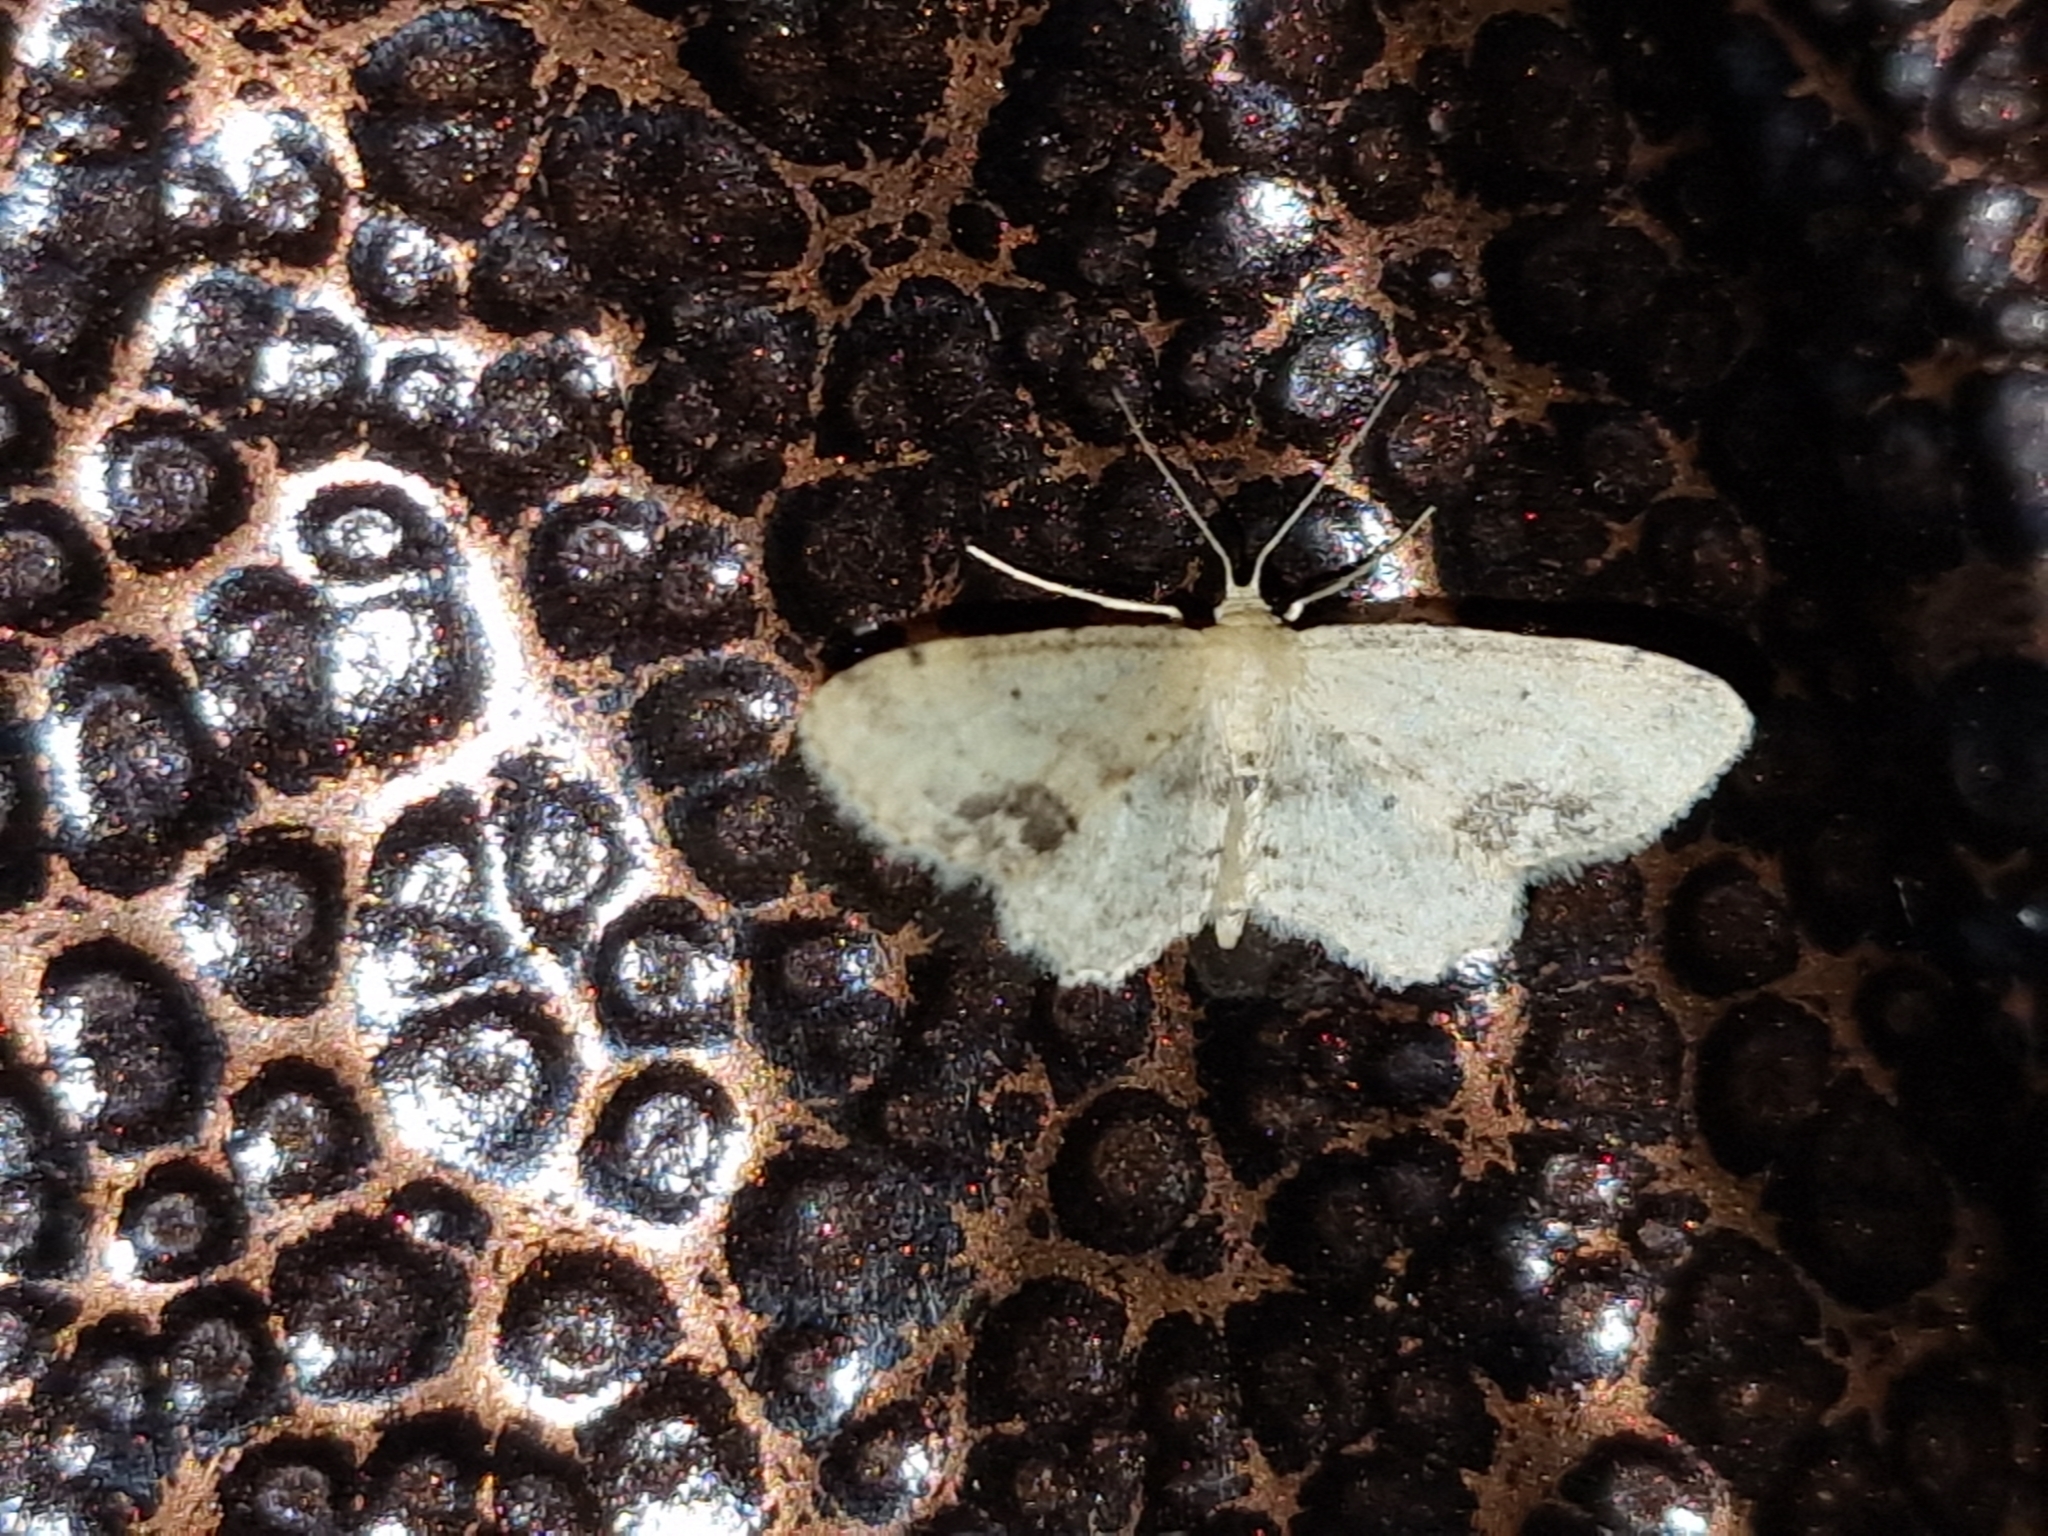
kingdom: Animalia
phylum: Arthropoda
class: Insecta
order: Lepidoptera
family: Geometridae
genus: Idaea
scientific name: Idaea dimidiata
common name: Single-dotted wave
